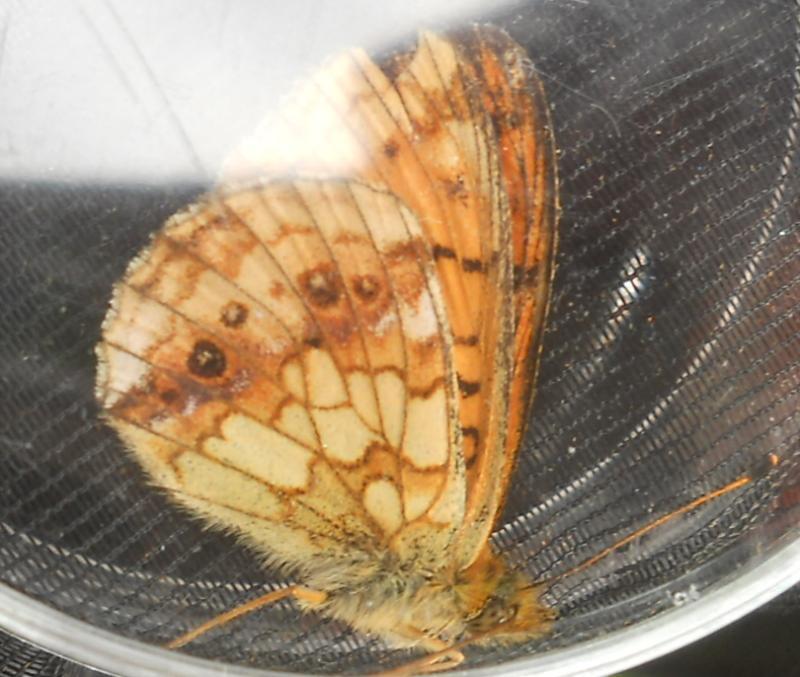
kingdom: Animalia
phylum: Arthropoda
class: Insecta
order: Lepidoptera
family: Nymphalidae
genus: Brenthis
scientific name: Brenthis ino
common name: Lesser marbled fritillary
